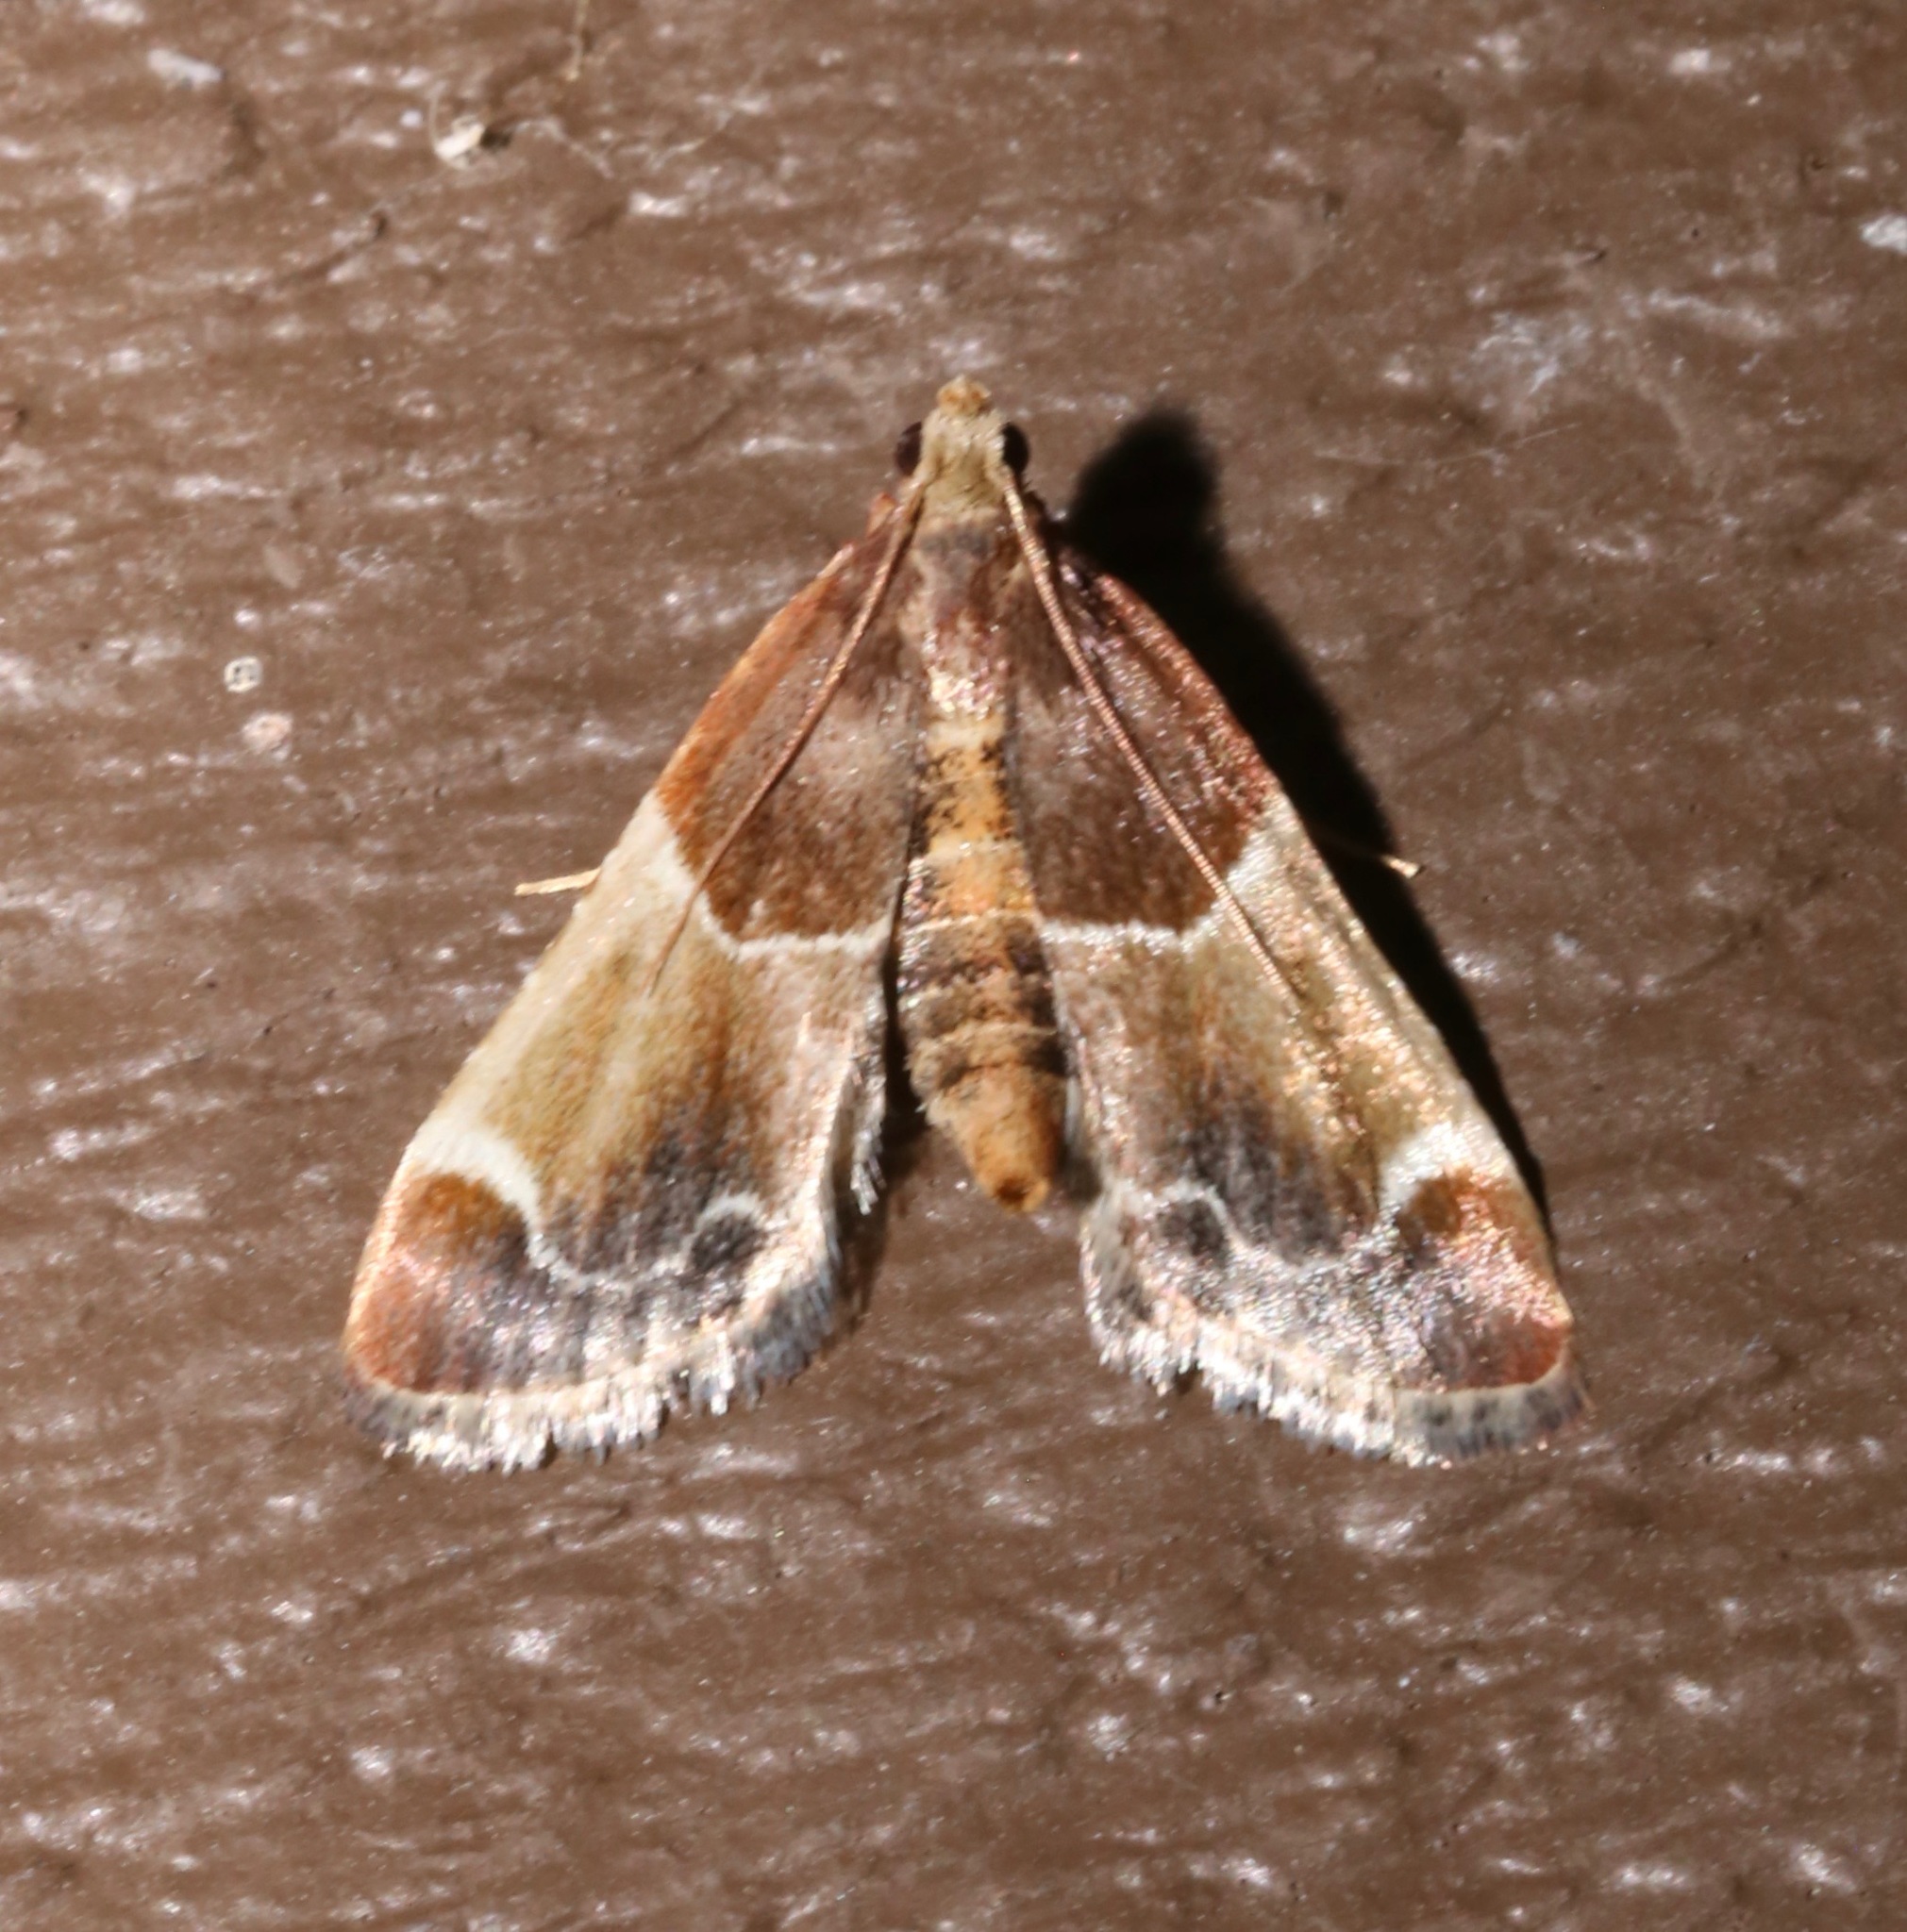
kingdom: Animalia
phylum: Arthropoda
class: Insecta
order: Lepidoptera
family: Pyralidae
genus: Pyralis
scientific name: Pyralis farinalis
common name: Meal moth
